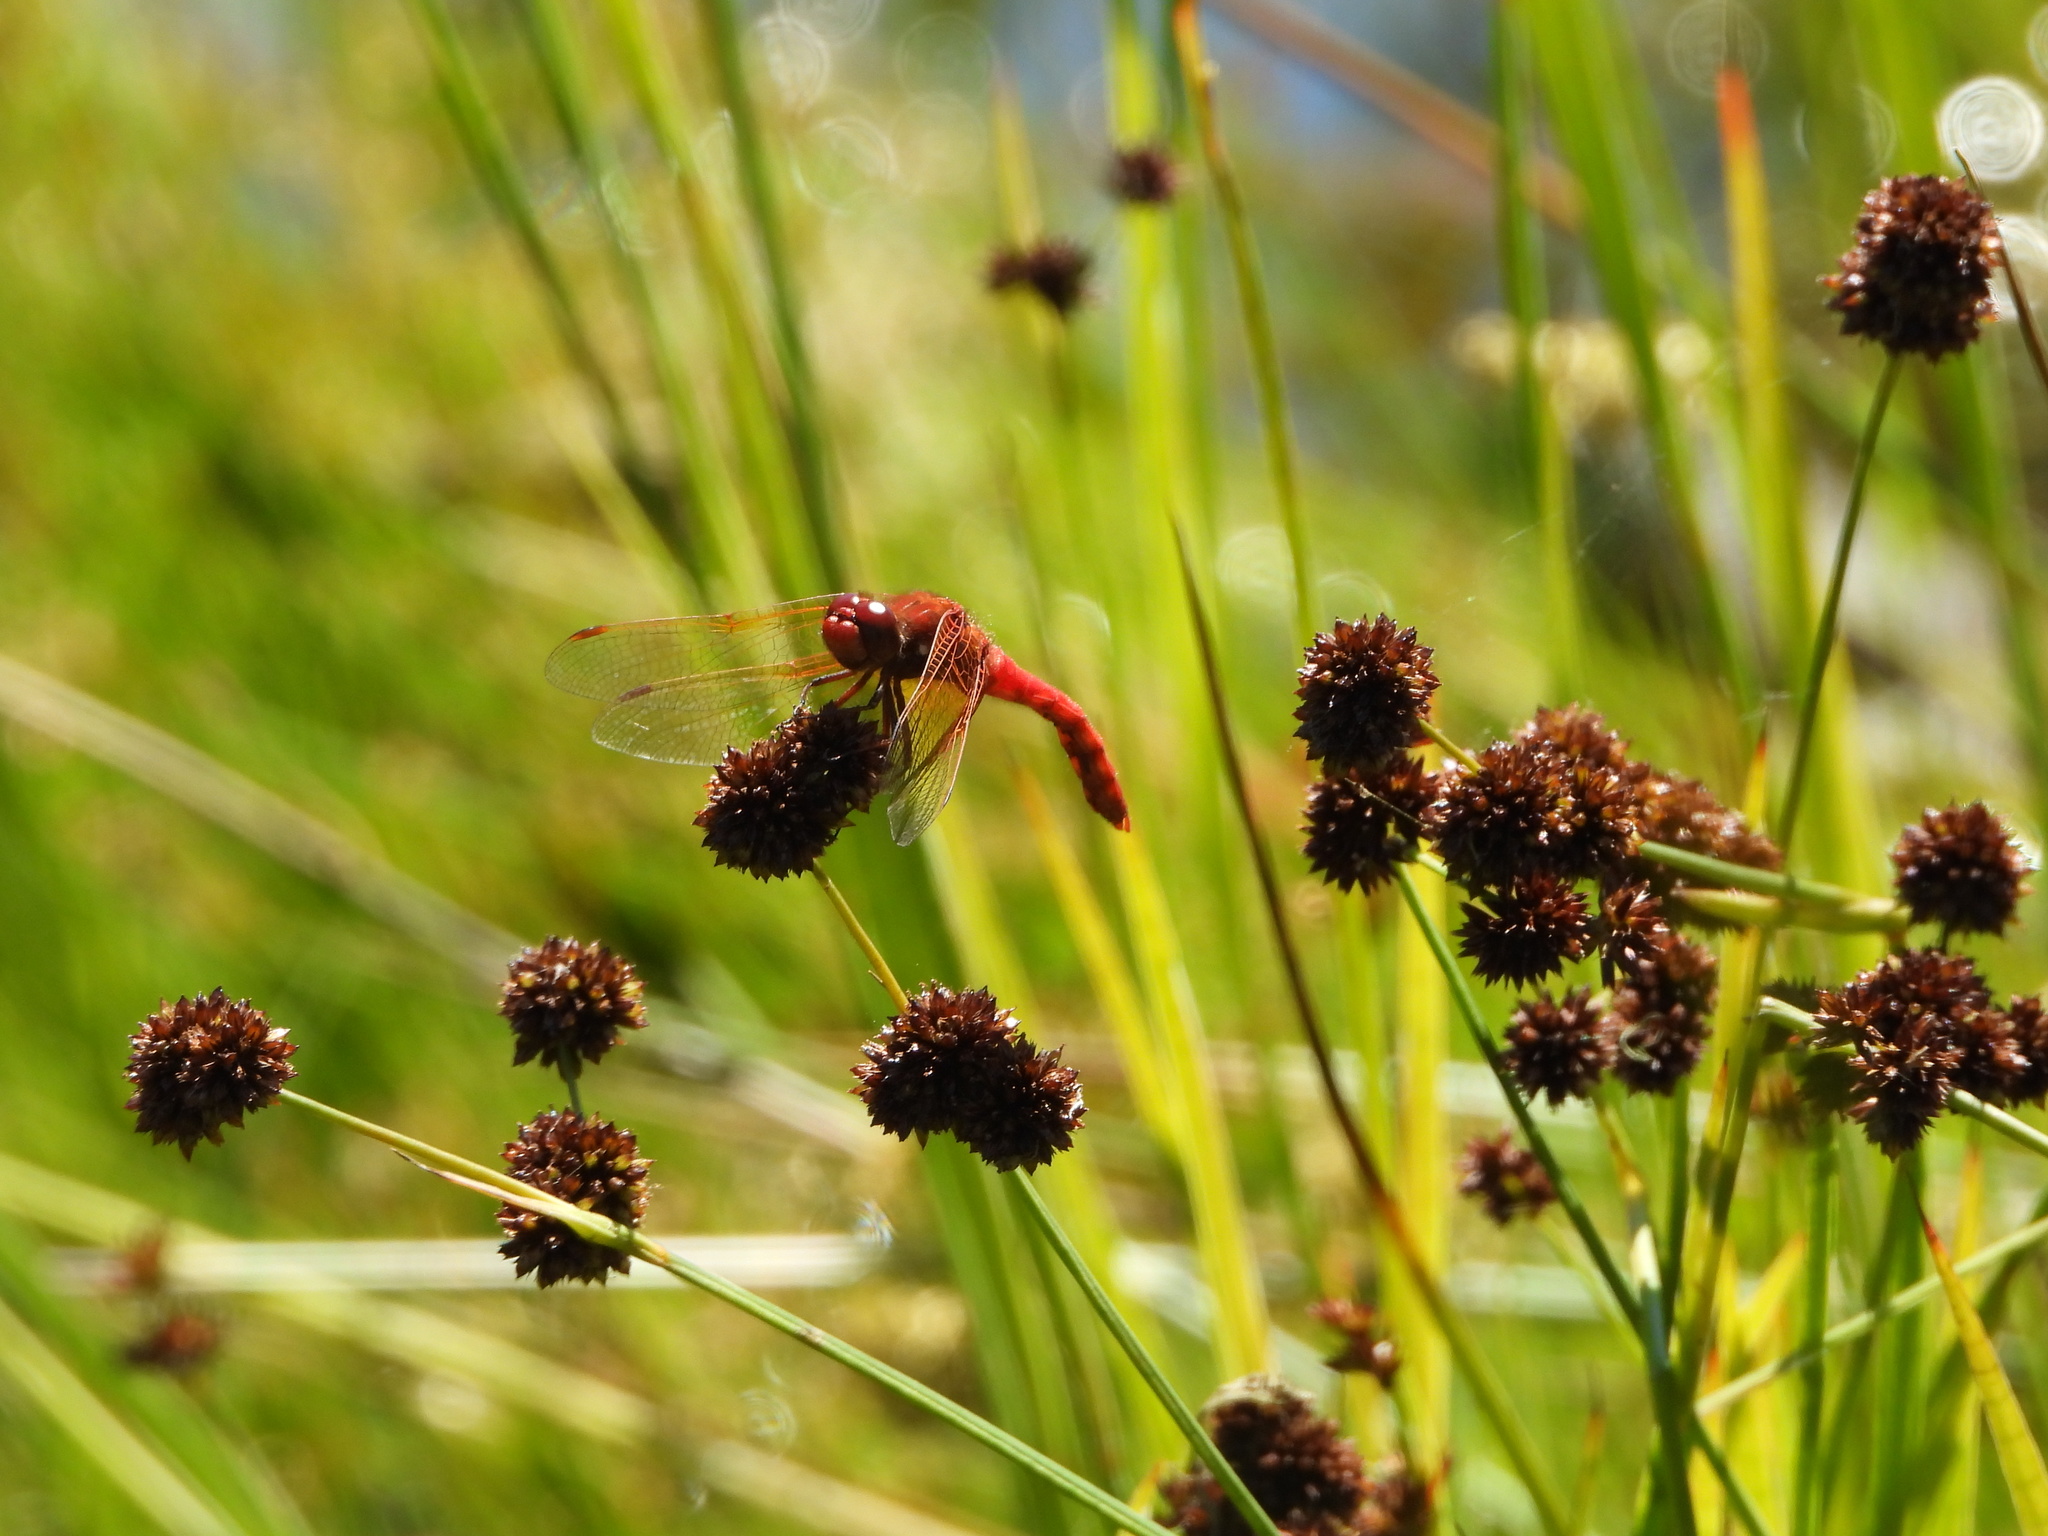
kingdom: Animalia
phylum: Arthropoda
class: Insecta
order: Odonata
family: Libellulidae
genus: Sympetrum
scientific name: Sympetrum illotum
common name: Cardinal meadowhawk
